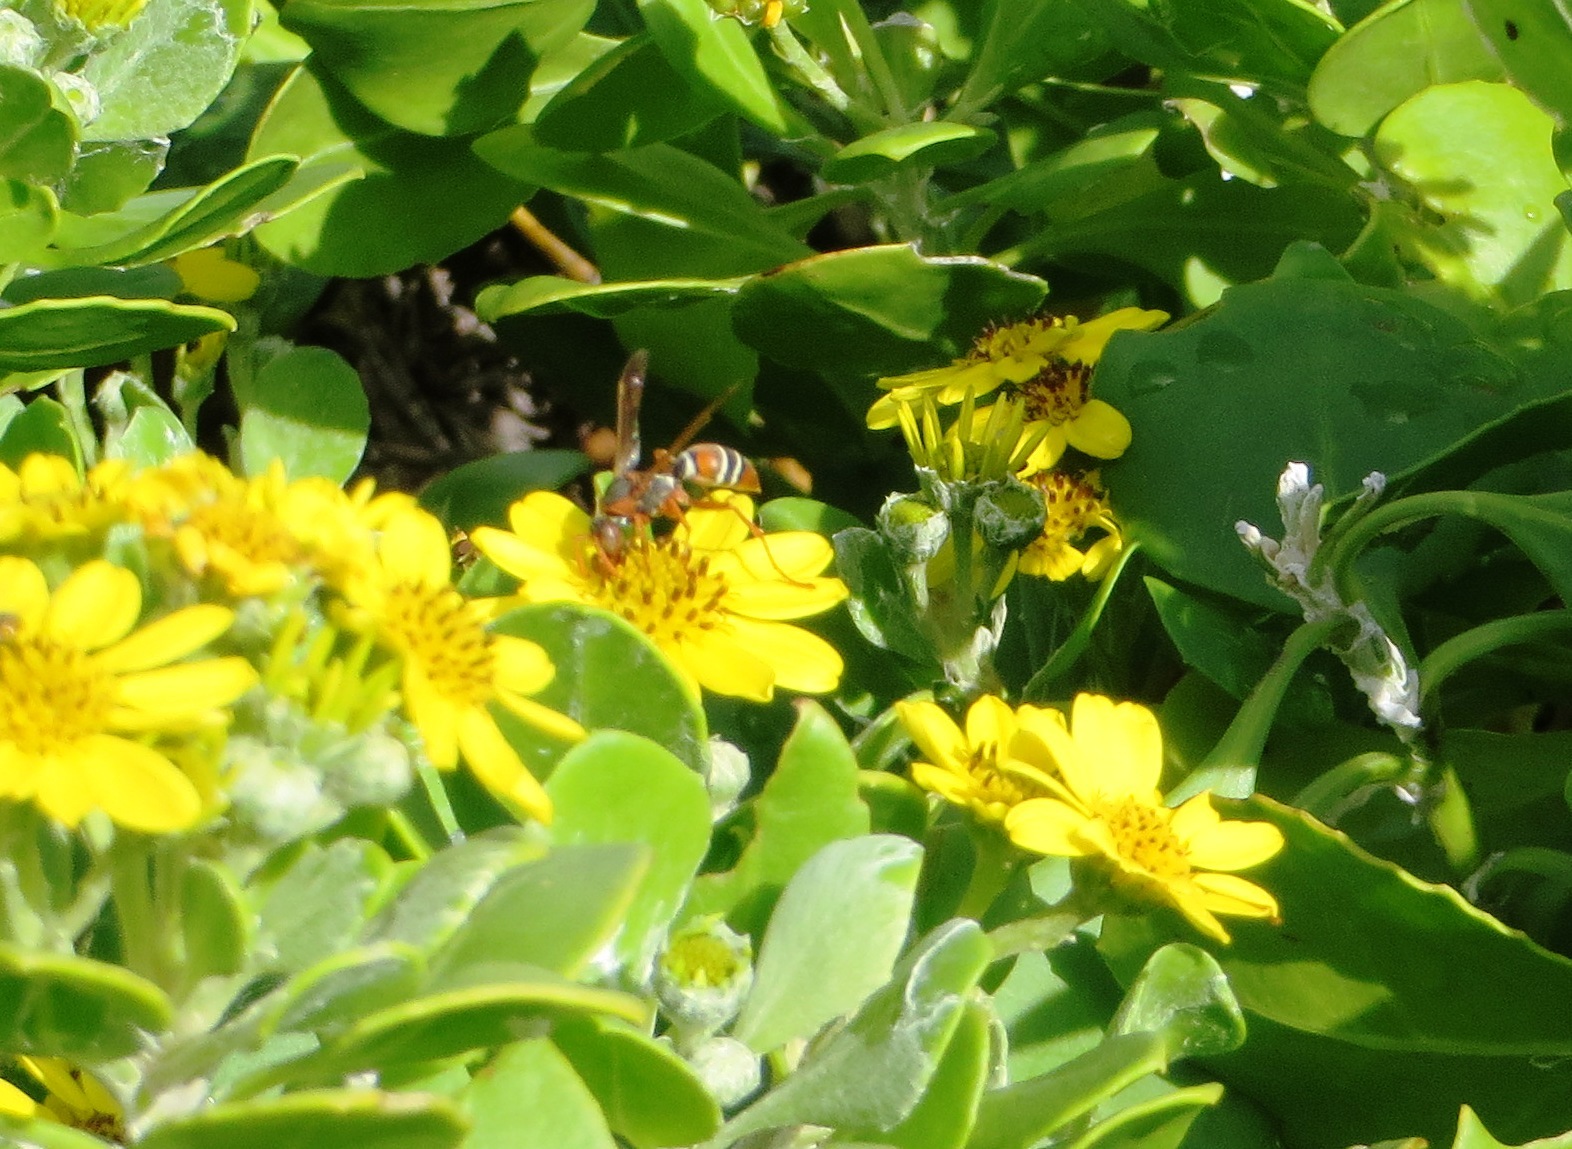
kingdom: Animalia
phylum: Arthropoda
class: Insecta
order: Hymenoptera
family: Eumenidae
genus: Polistes
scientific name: Polistes marginalis
